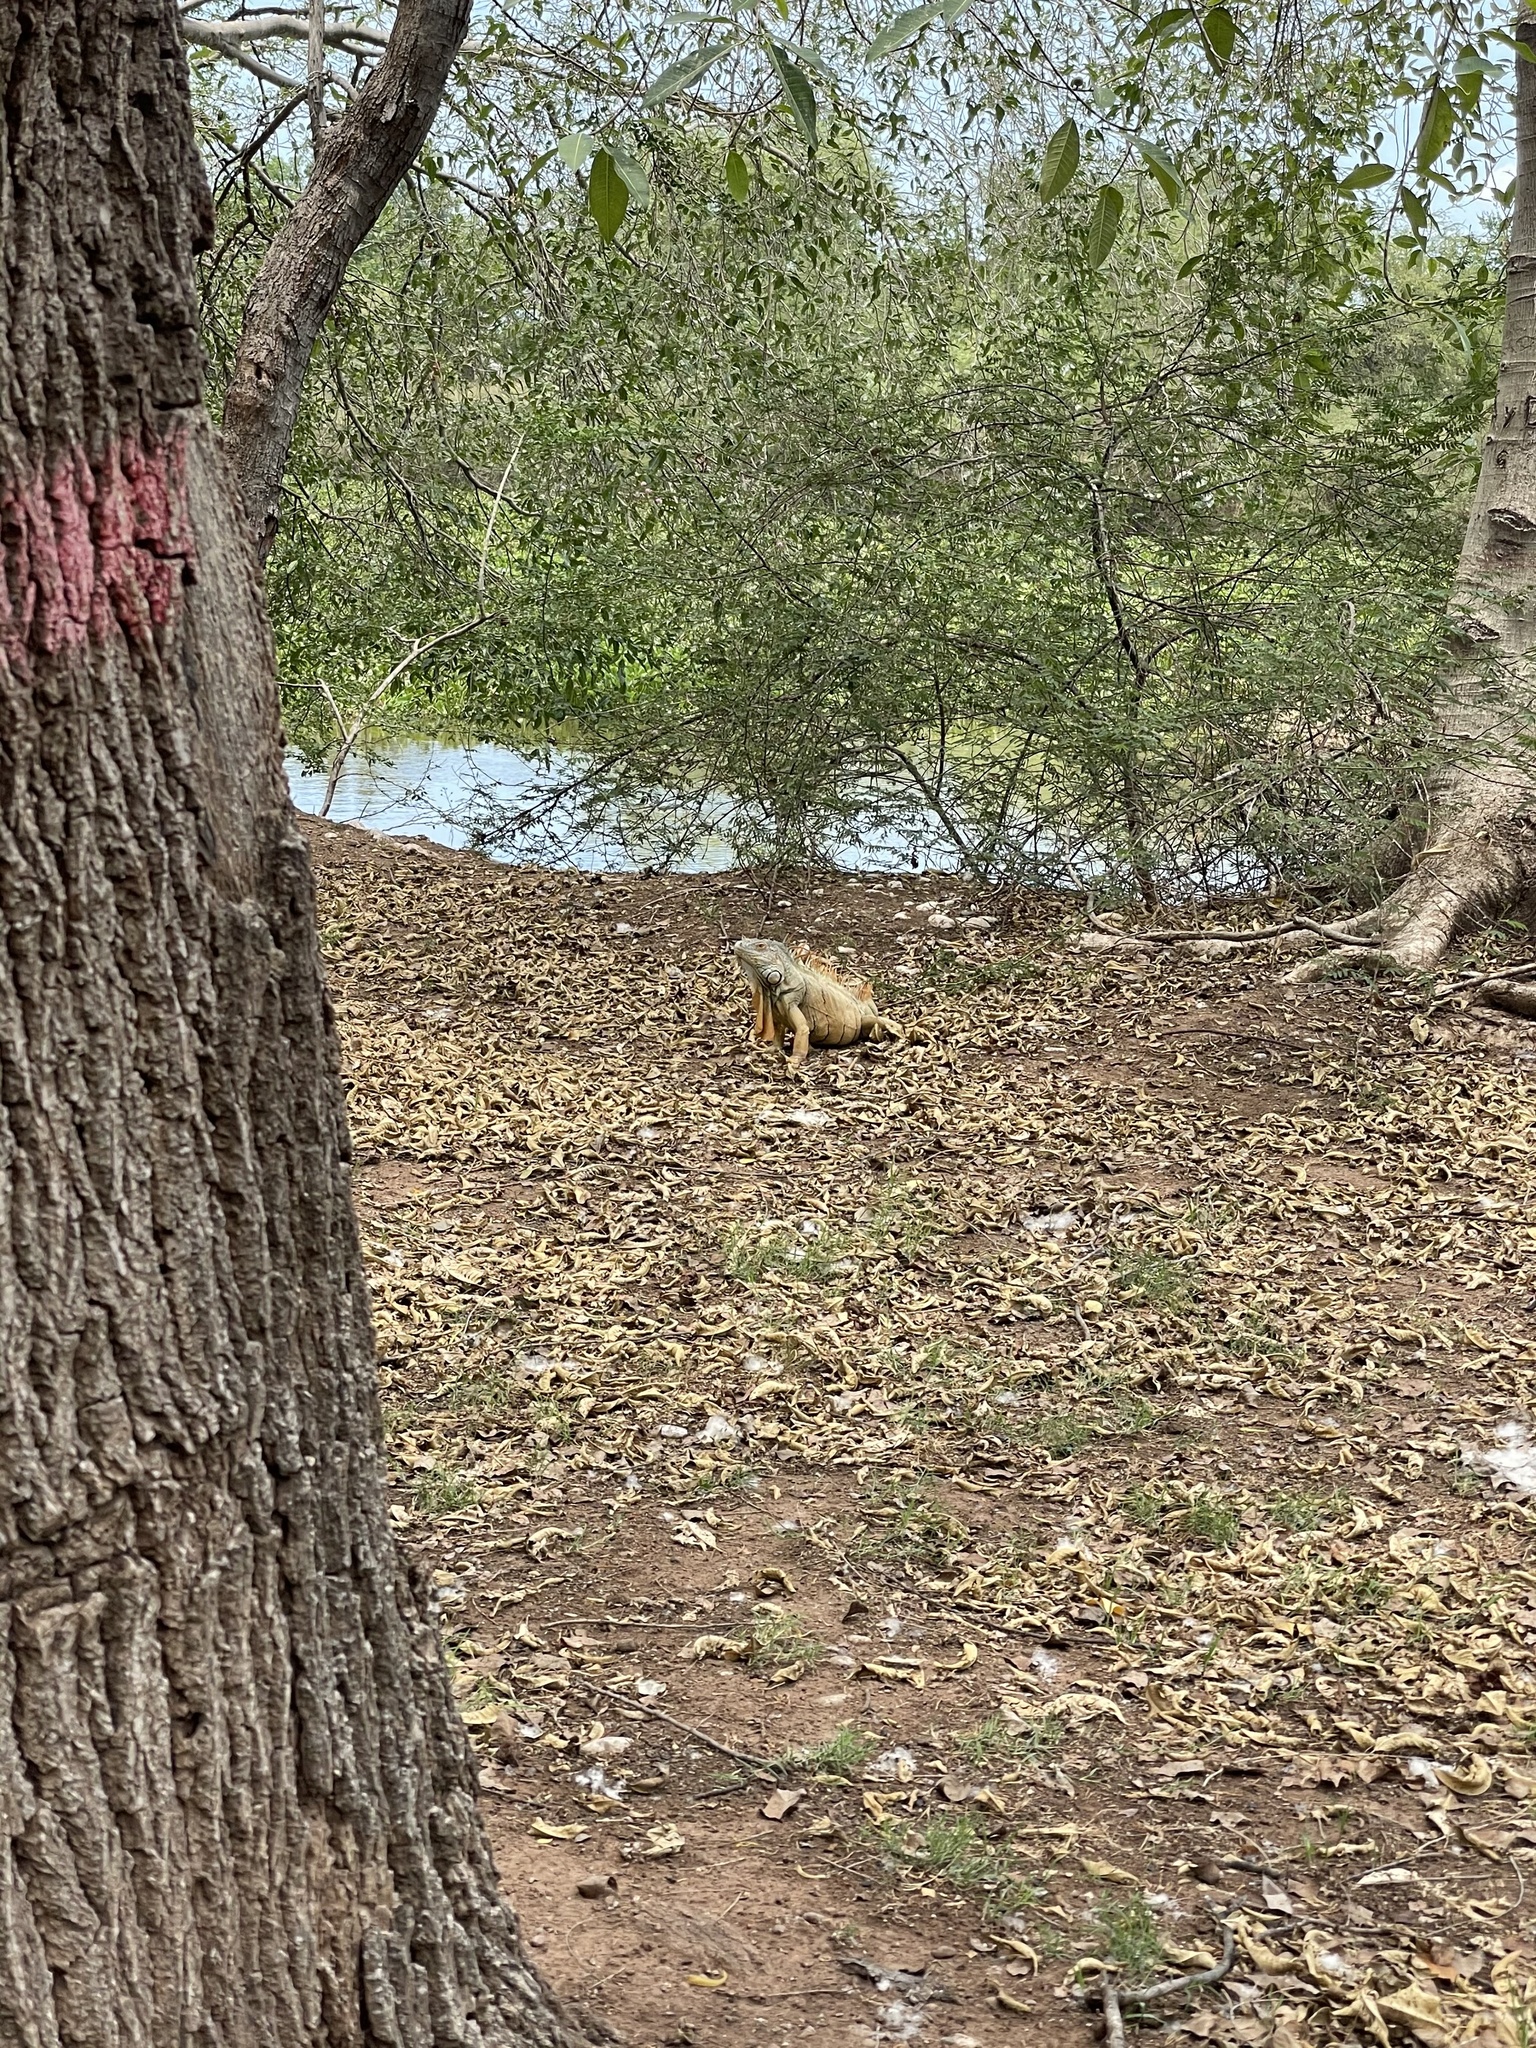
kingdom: Animalia
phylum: Chordata
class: Squamata
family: Iguanidae
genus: Iguana
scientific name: Iguana iguana
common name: Green iguana
